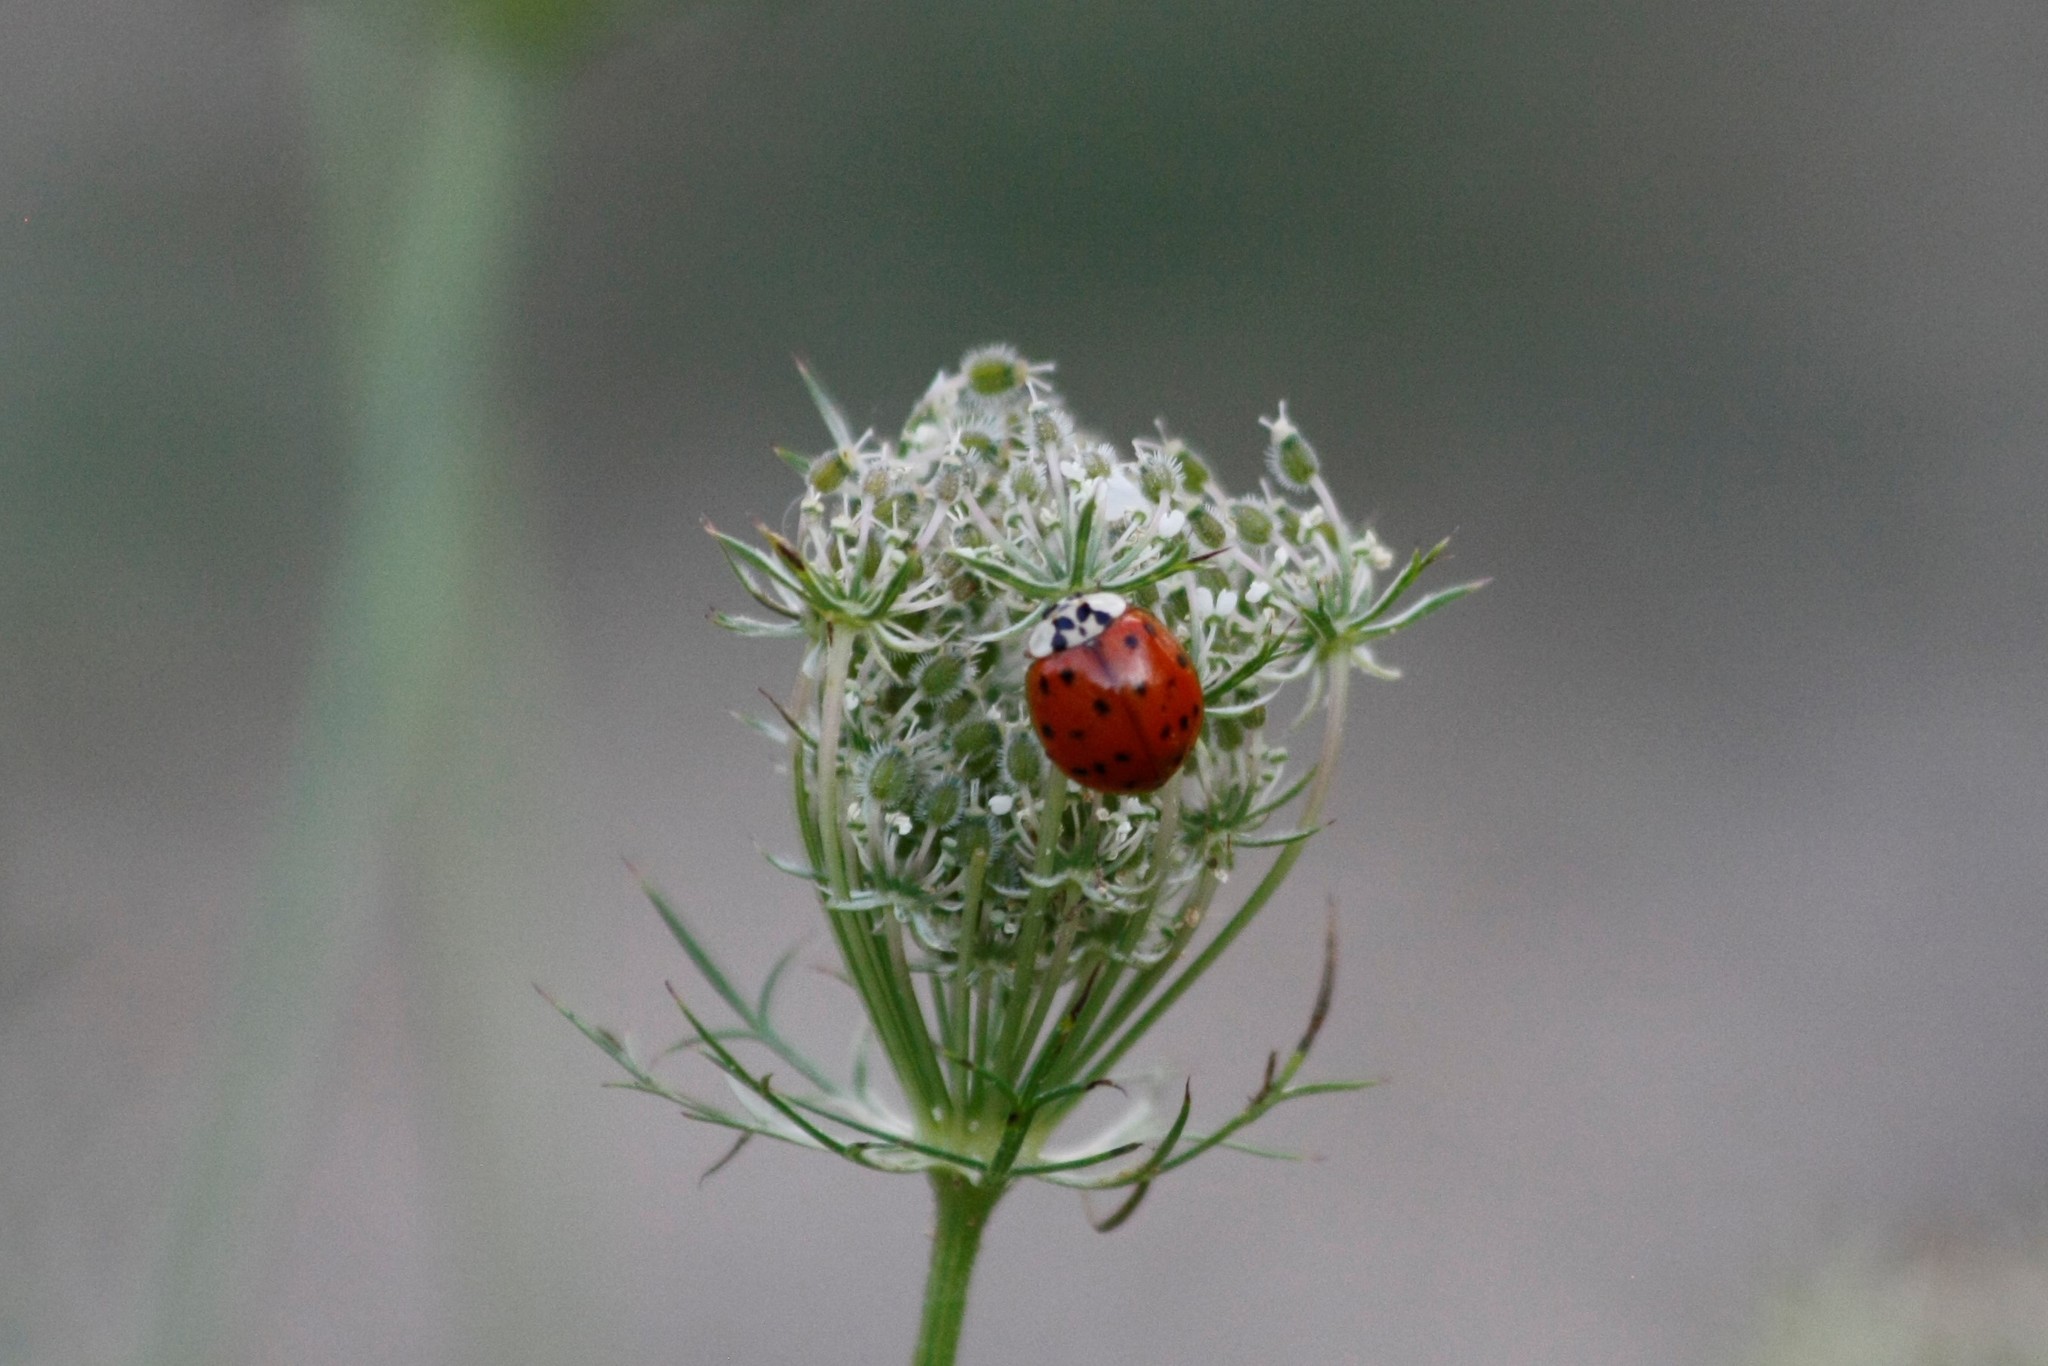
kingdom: Animalia
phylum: Arthropoda
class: Insecta
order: Coleoptera
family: Coccinellidae
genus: Harmonia
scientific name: Harmonia axyridis
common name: Harlequin ladybird
